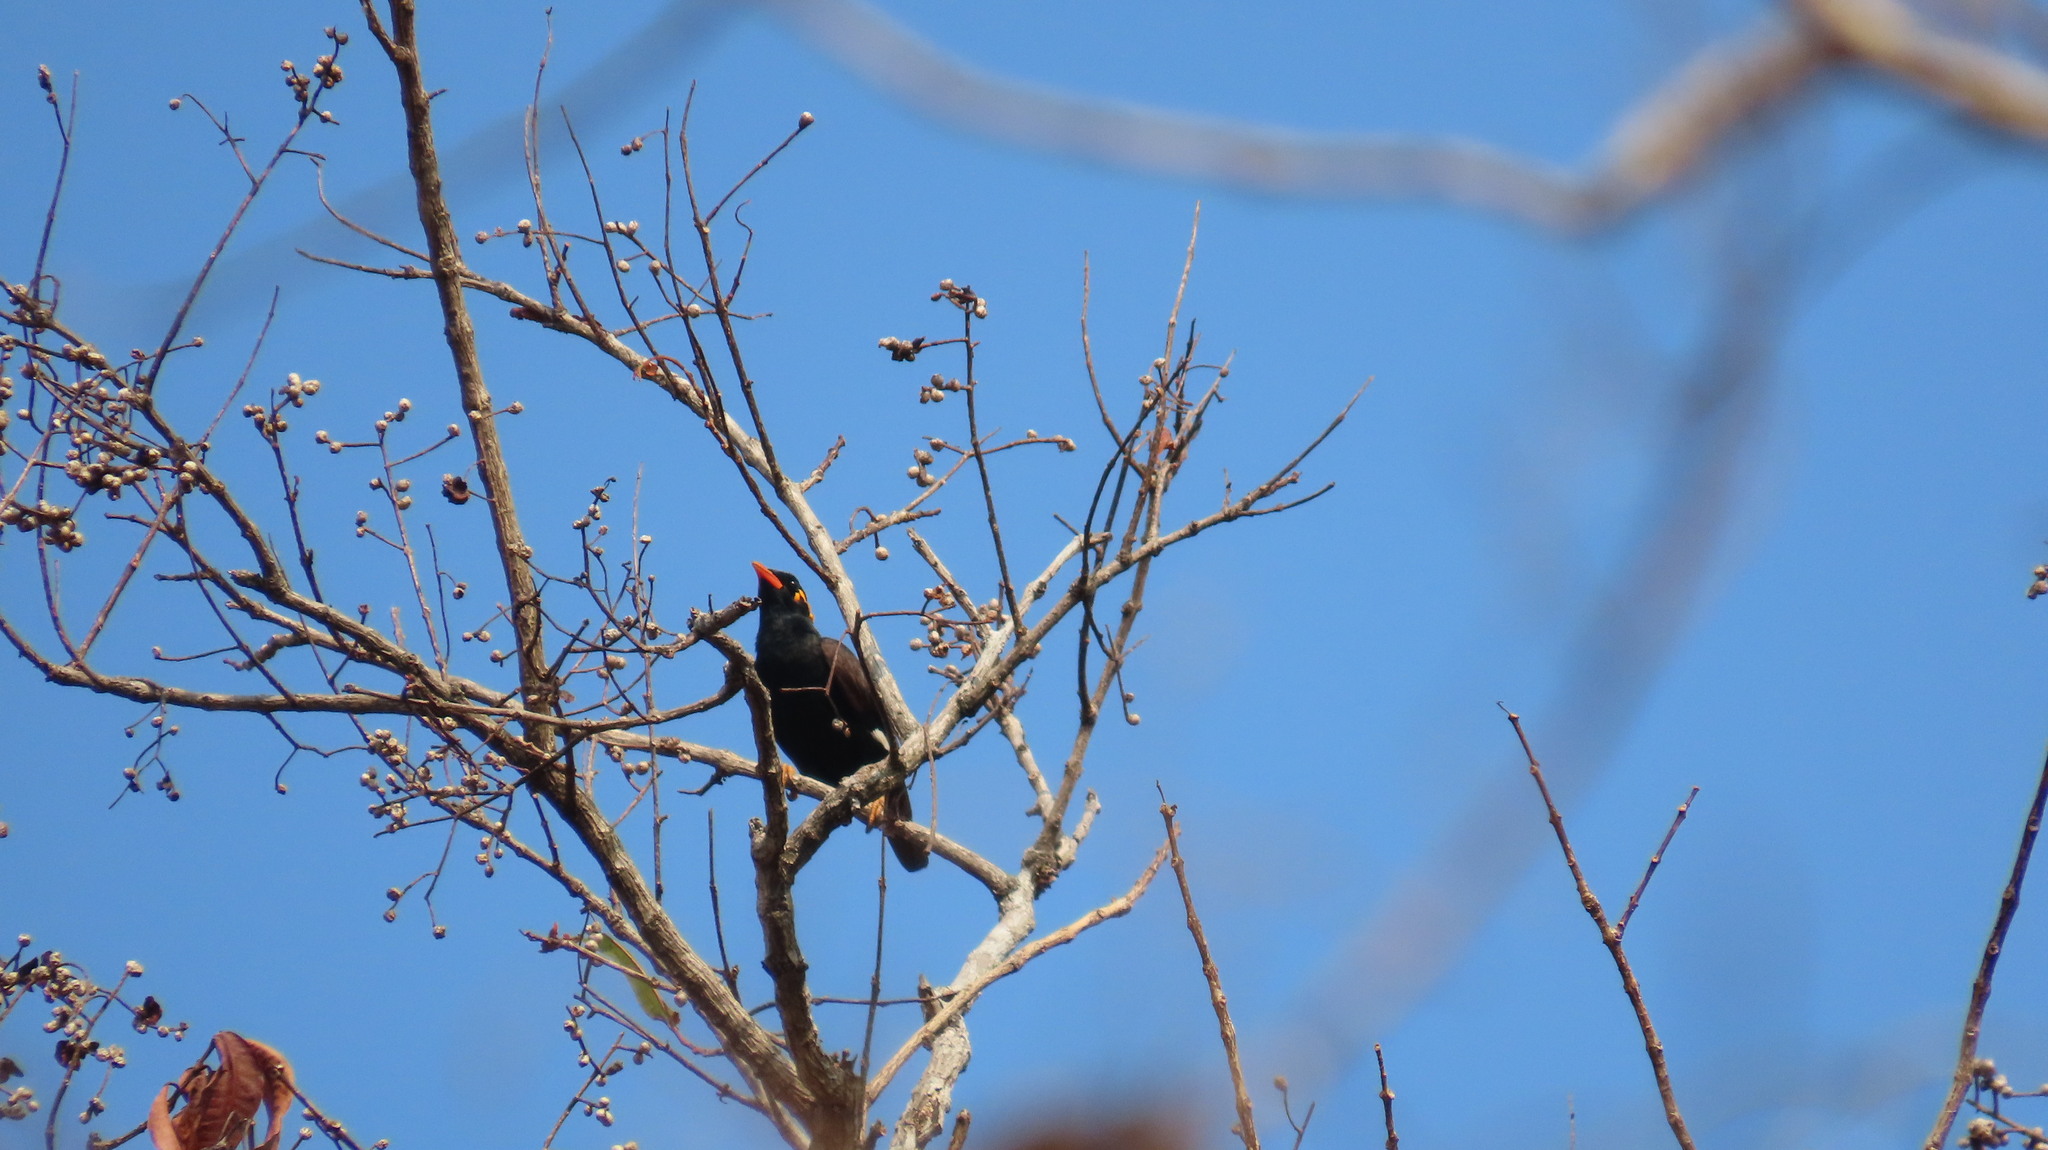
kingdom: Animalia
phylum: Chordata
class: Aves
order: Passeriformes
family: Sturnidae
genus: Gracula
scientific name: Gracula indica
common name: Southern hill myna
